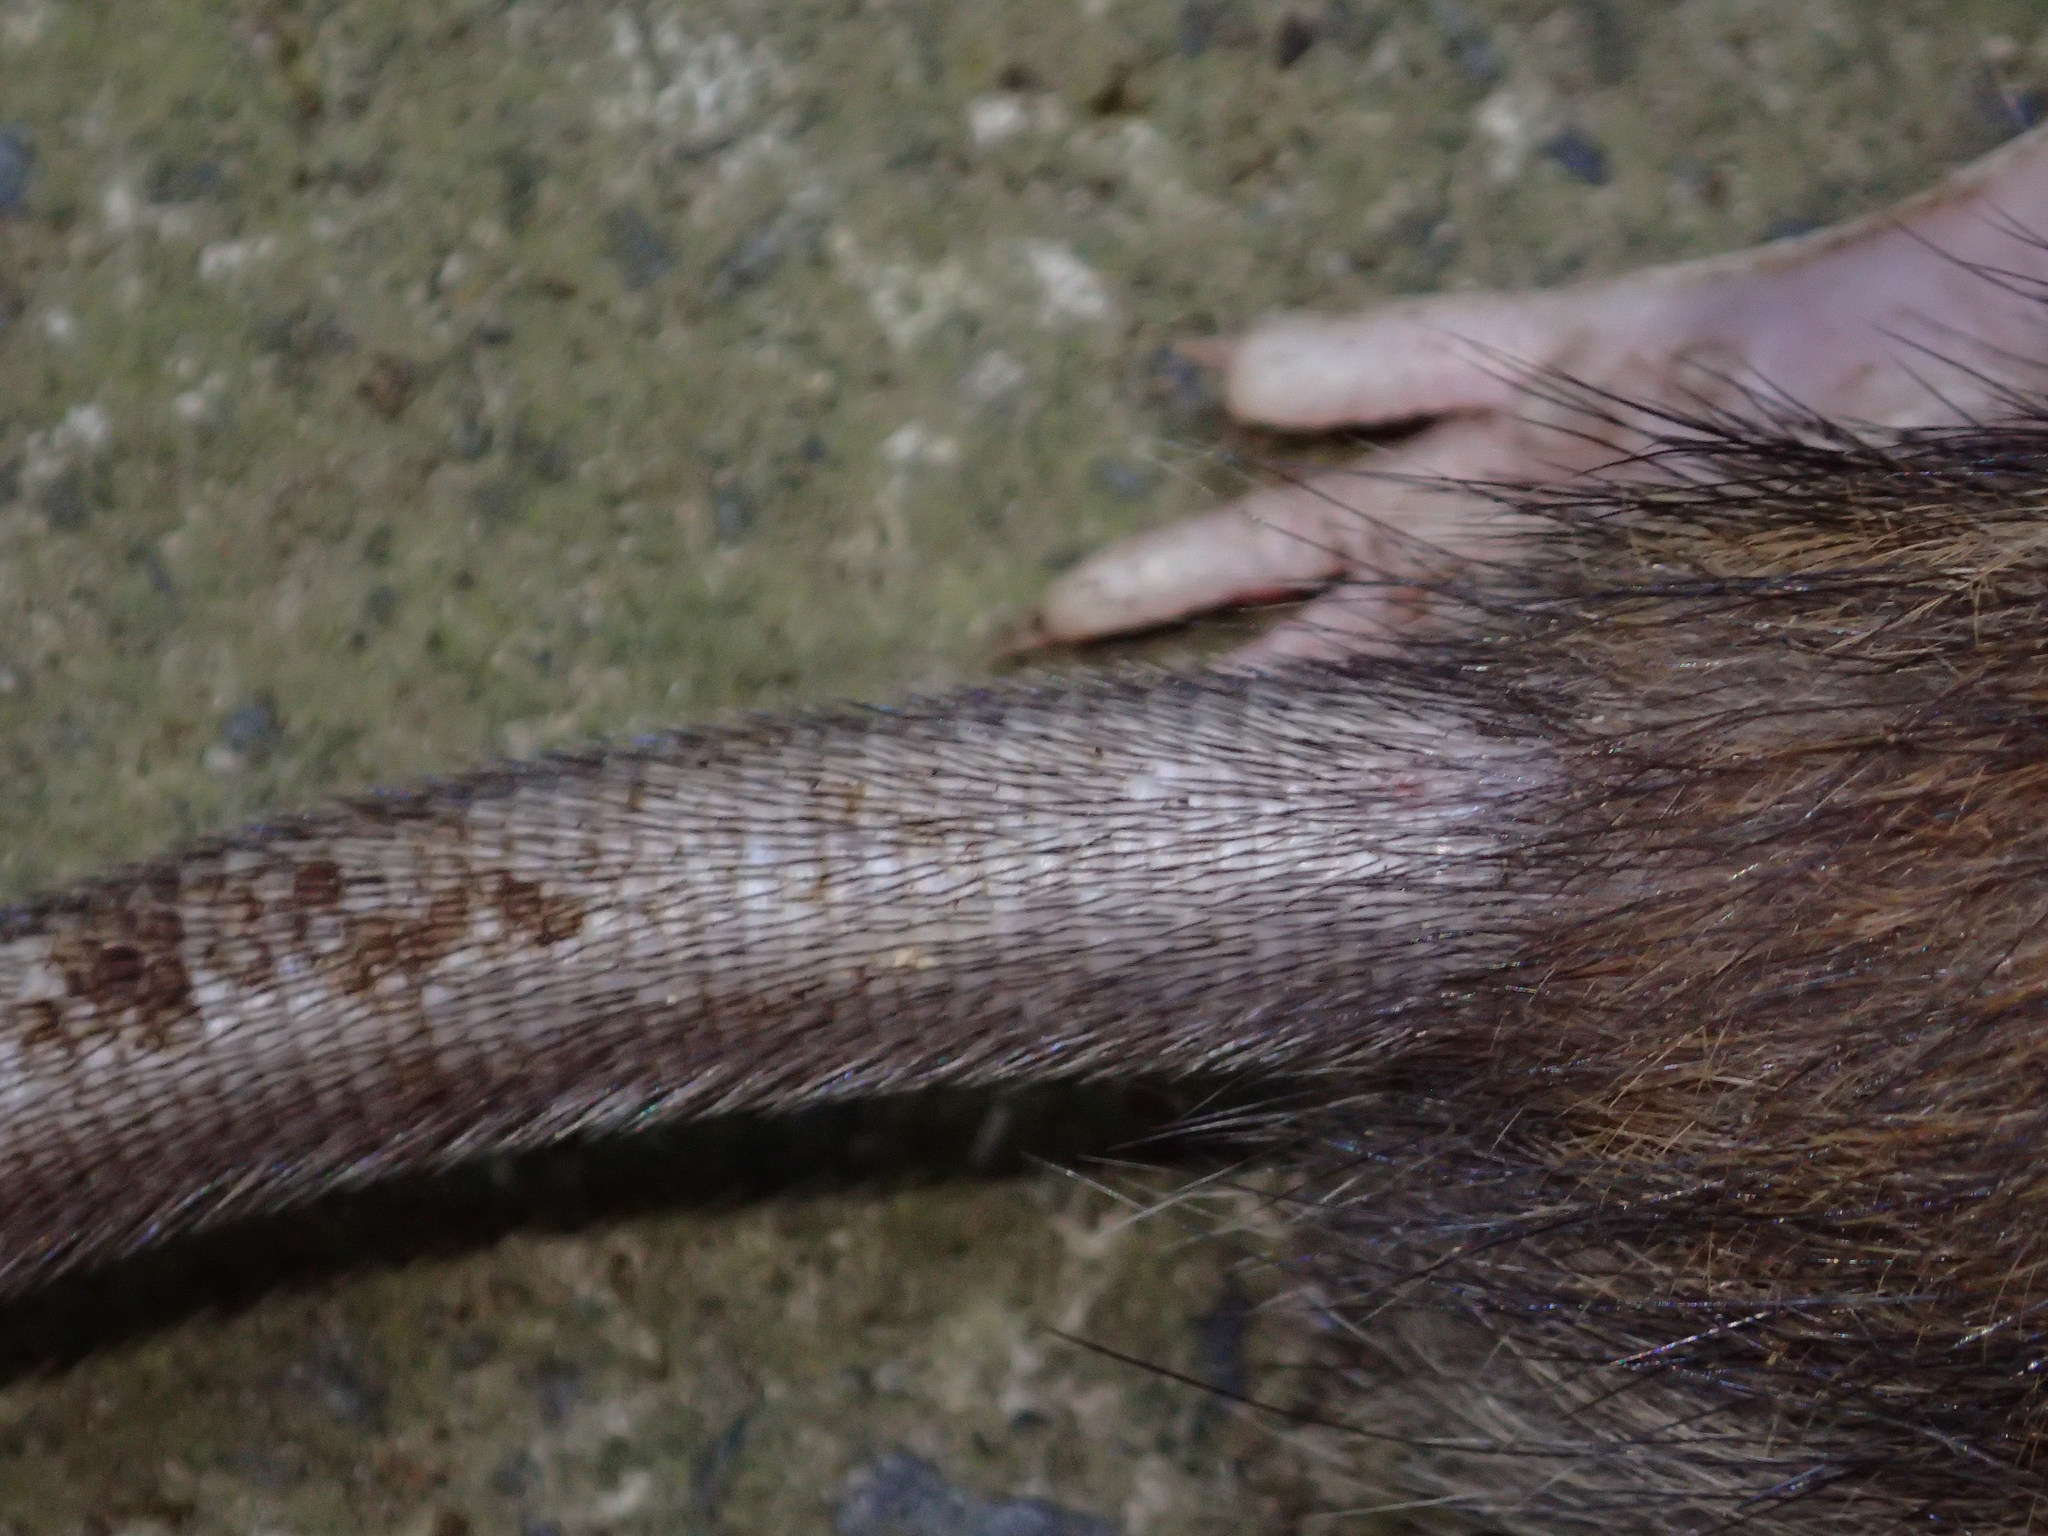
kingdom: Animalia
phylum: Chordata
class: Mammalia
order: Rodentia
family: Muridae
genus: Rattus
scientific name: Rattus norvegicus
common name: Brown rat
